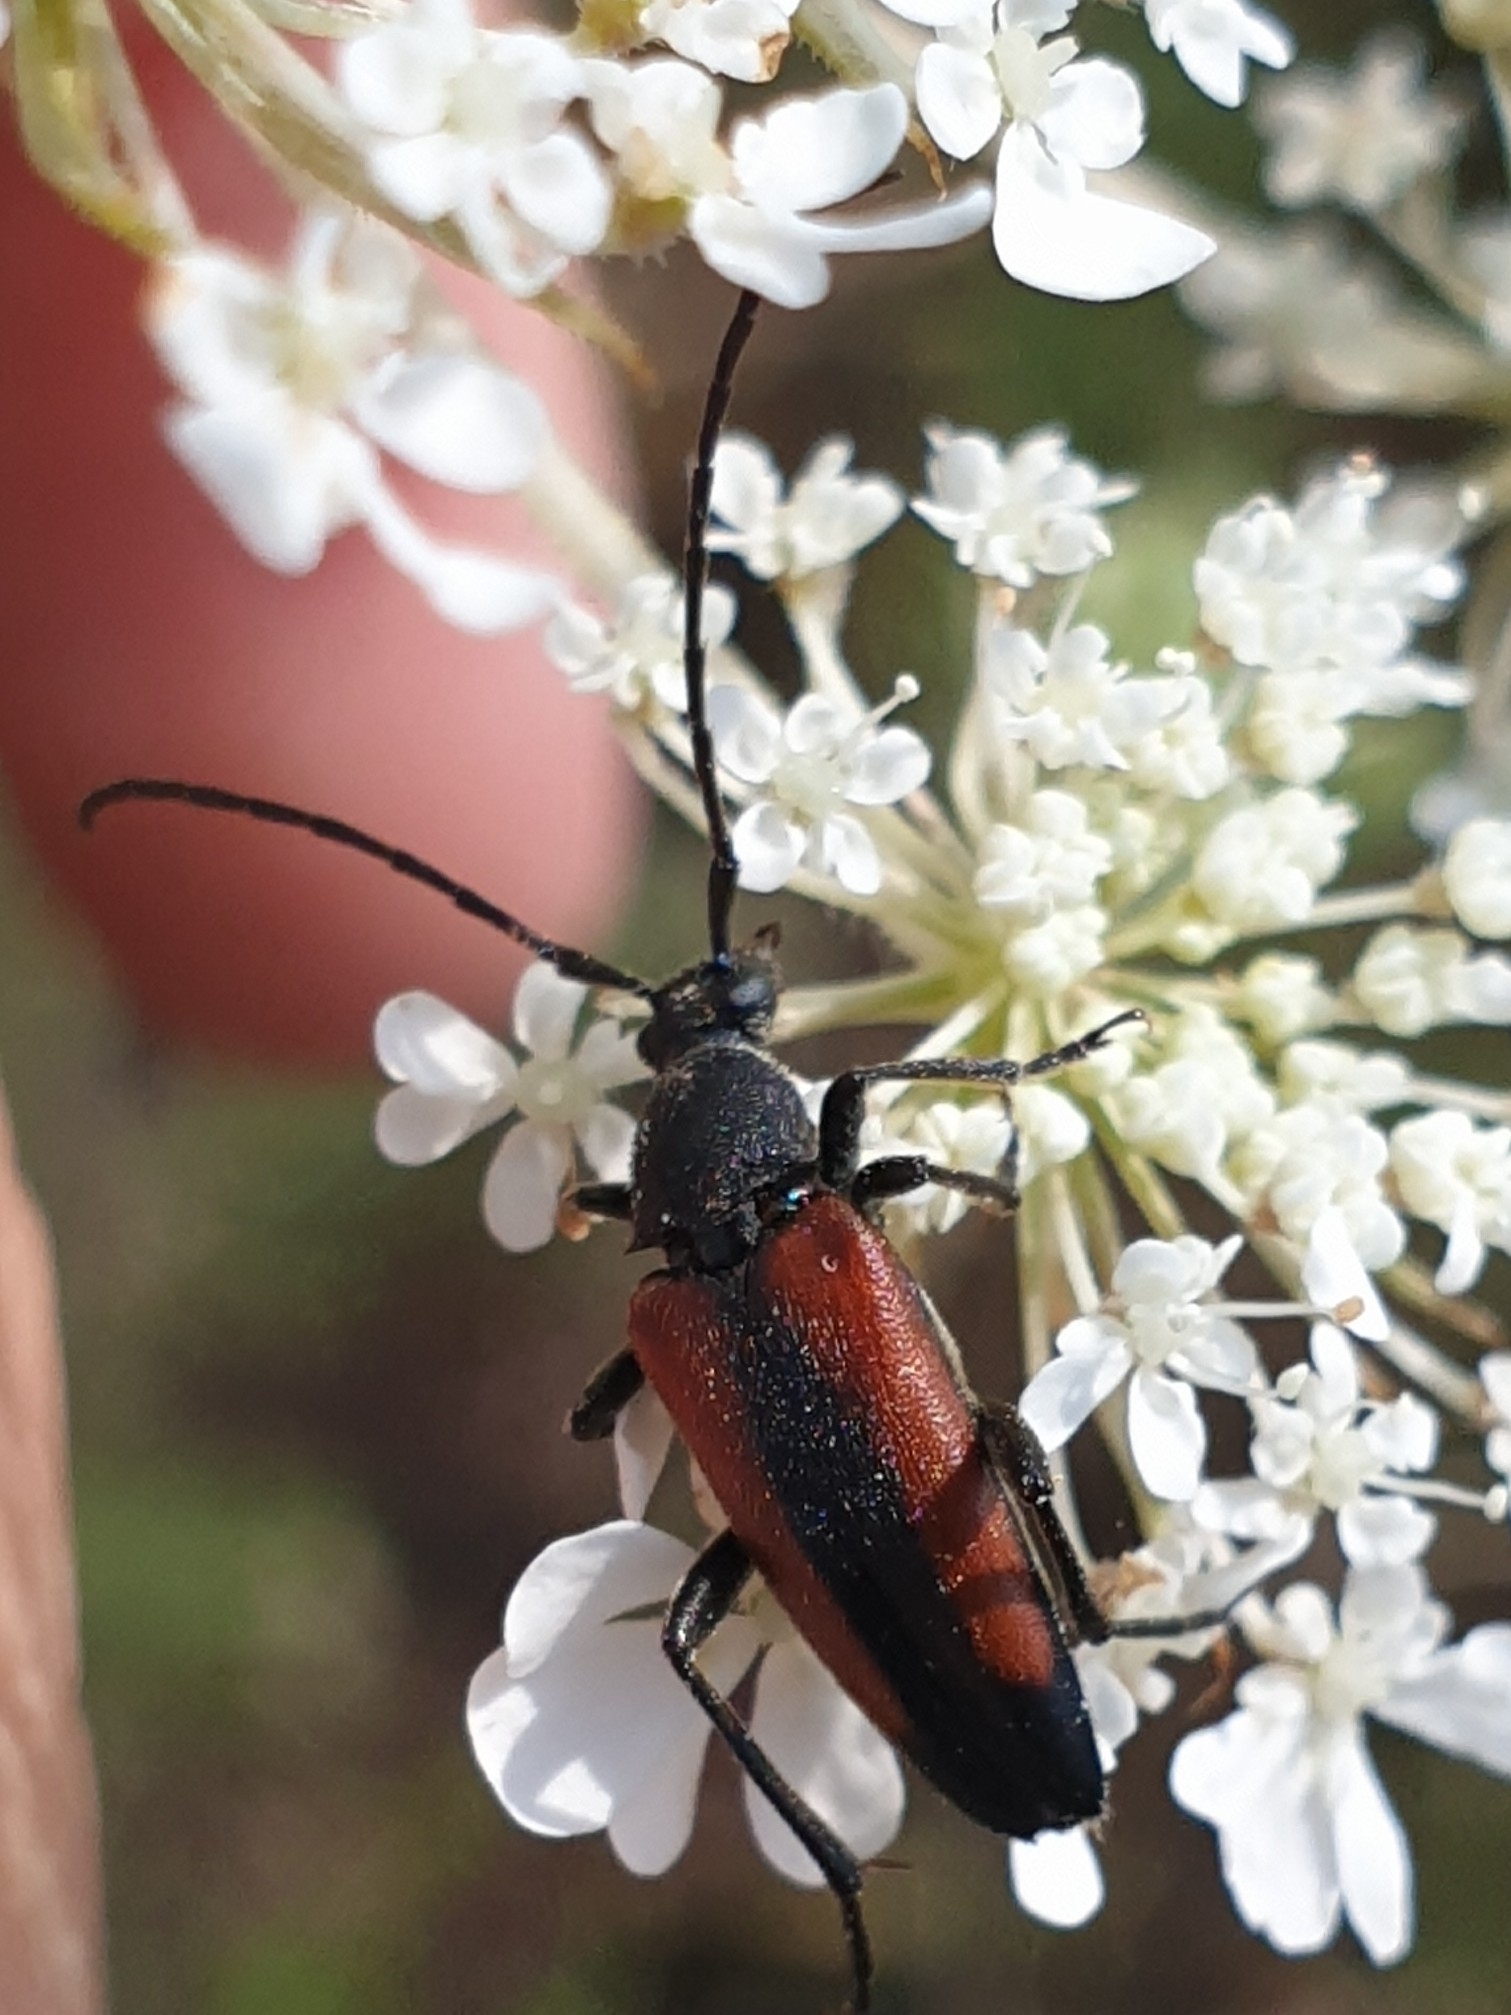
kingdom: Animalia
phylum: Arthropoda
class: Insecta
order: Coleoptera
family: Cerambycidae
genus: Stenurella
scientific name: Stenurella melanura
